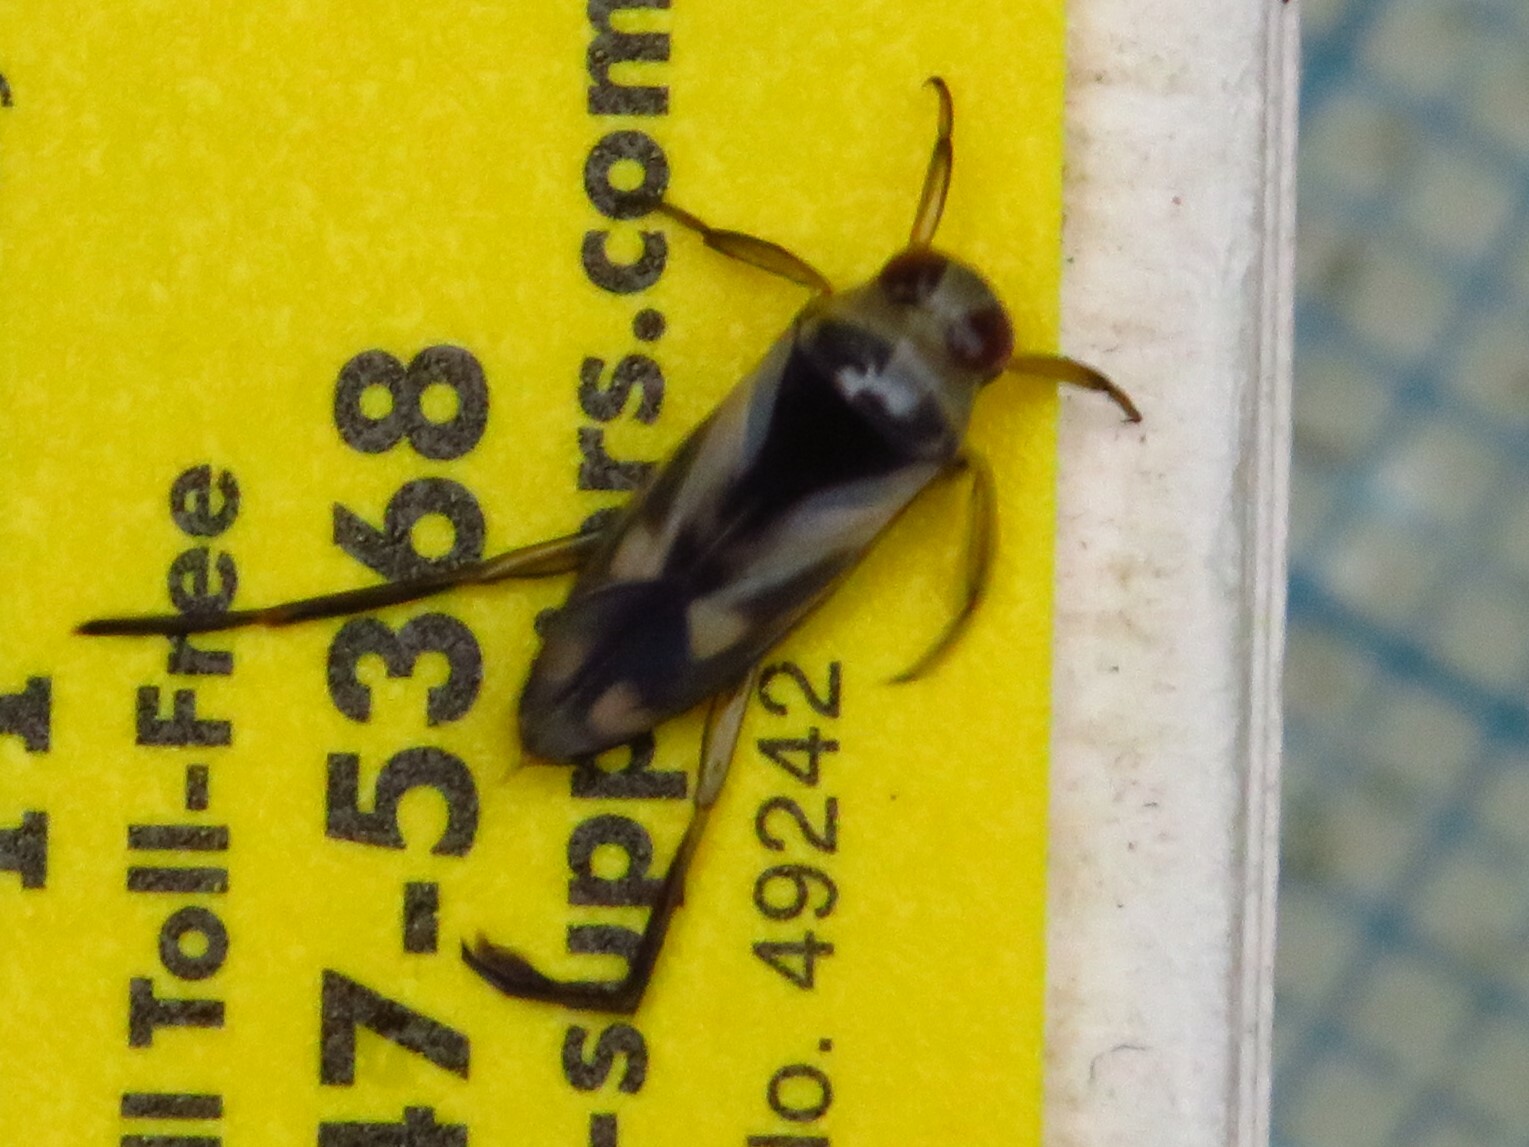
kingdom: Animalia
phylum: Arthropoda
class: Insecta
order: Hemiptera
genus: Paranecta
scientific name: Paranecta
